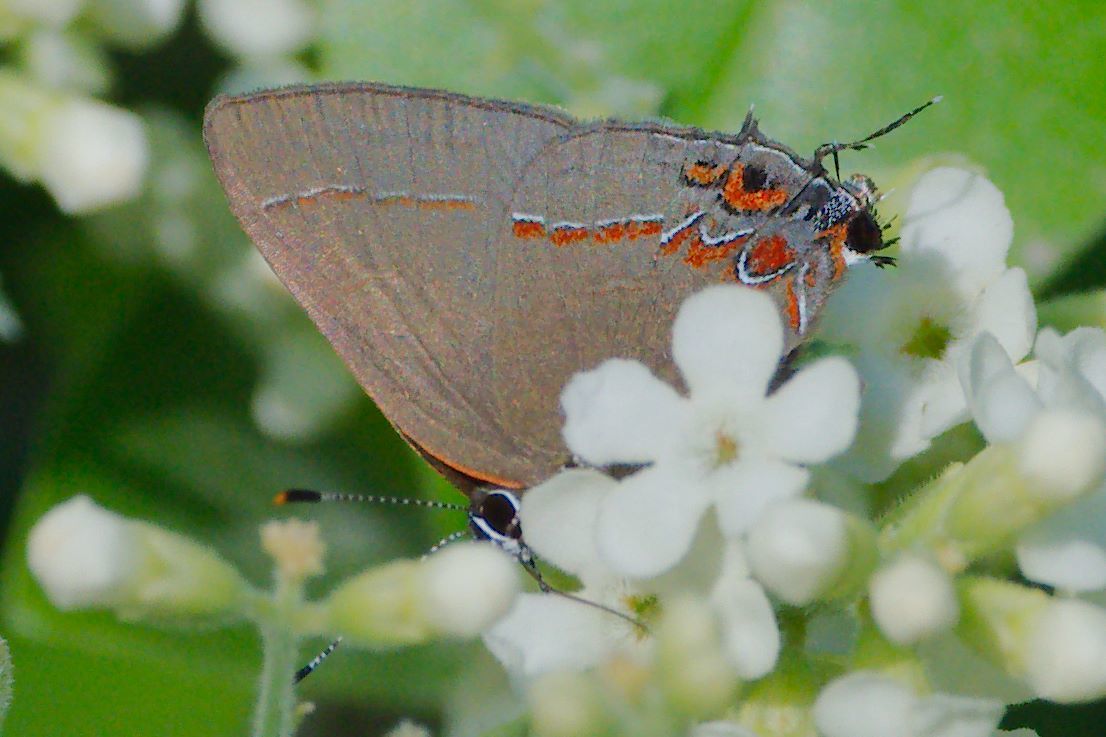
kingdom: Animalia
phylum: Arthropoda
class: Insecta
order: Lepidoptera
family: Lycaenidae
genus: Calycopis
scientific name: Calycopis isobeon
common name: Dusky-blue groundstreak
